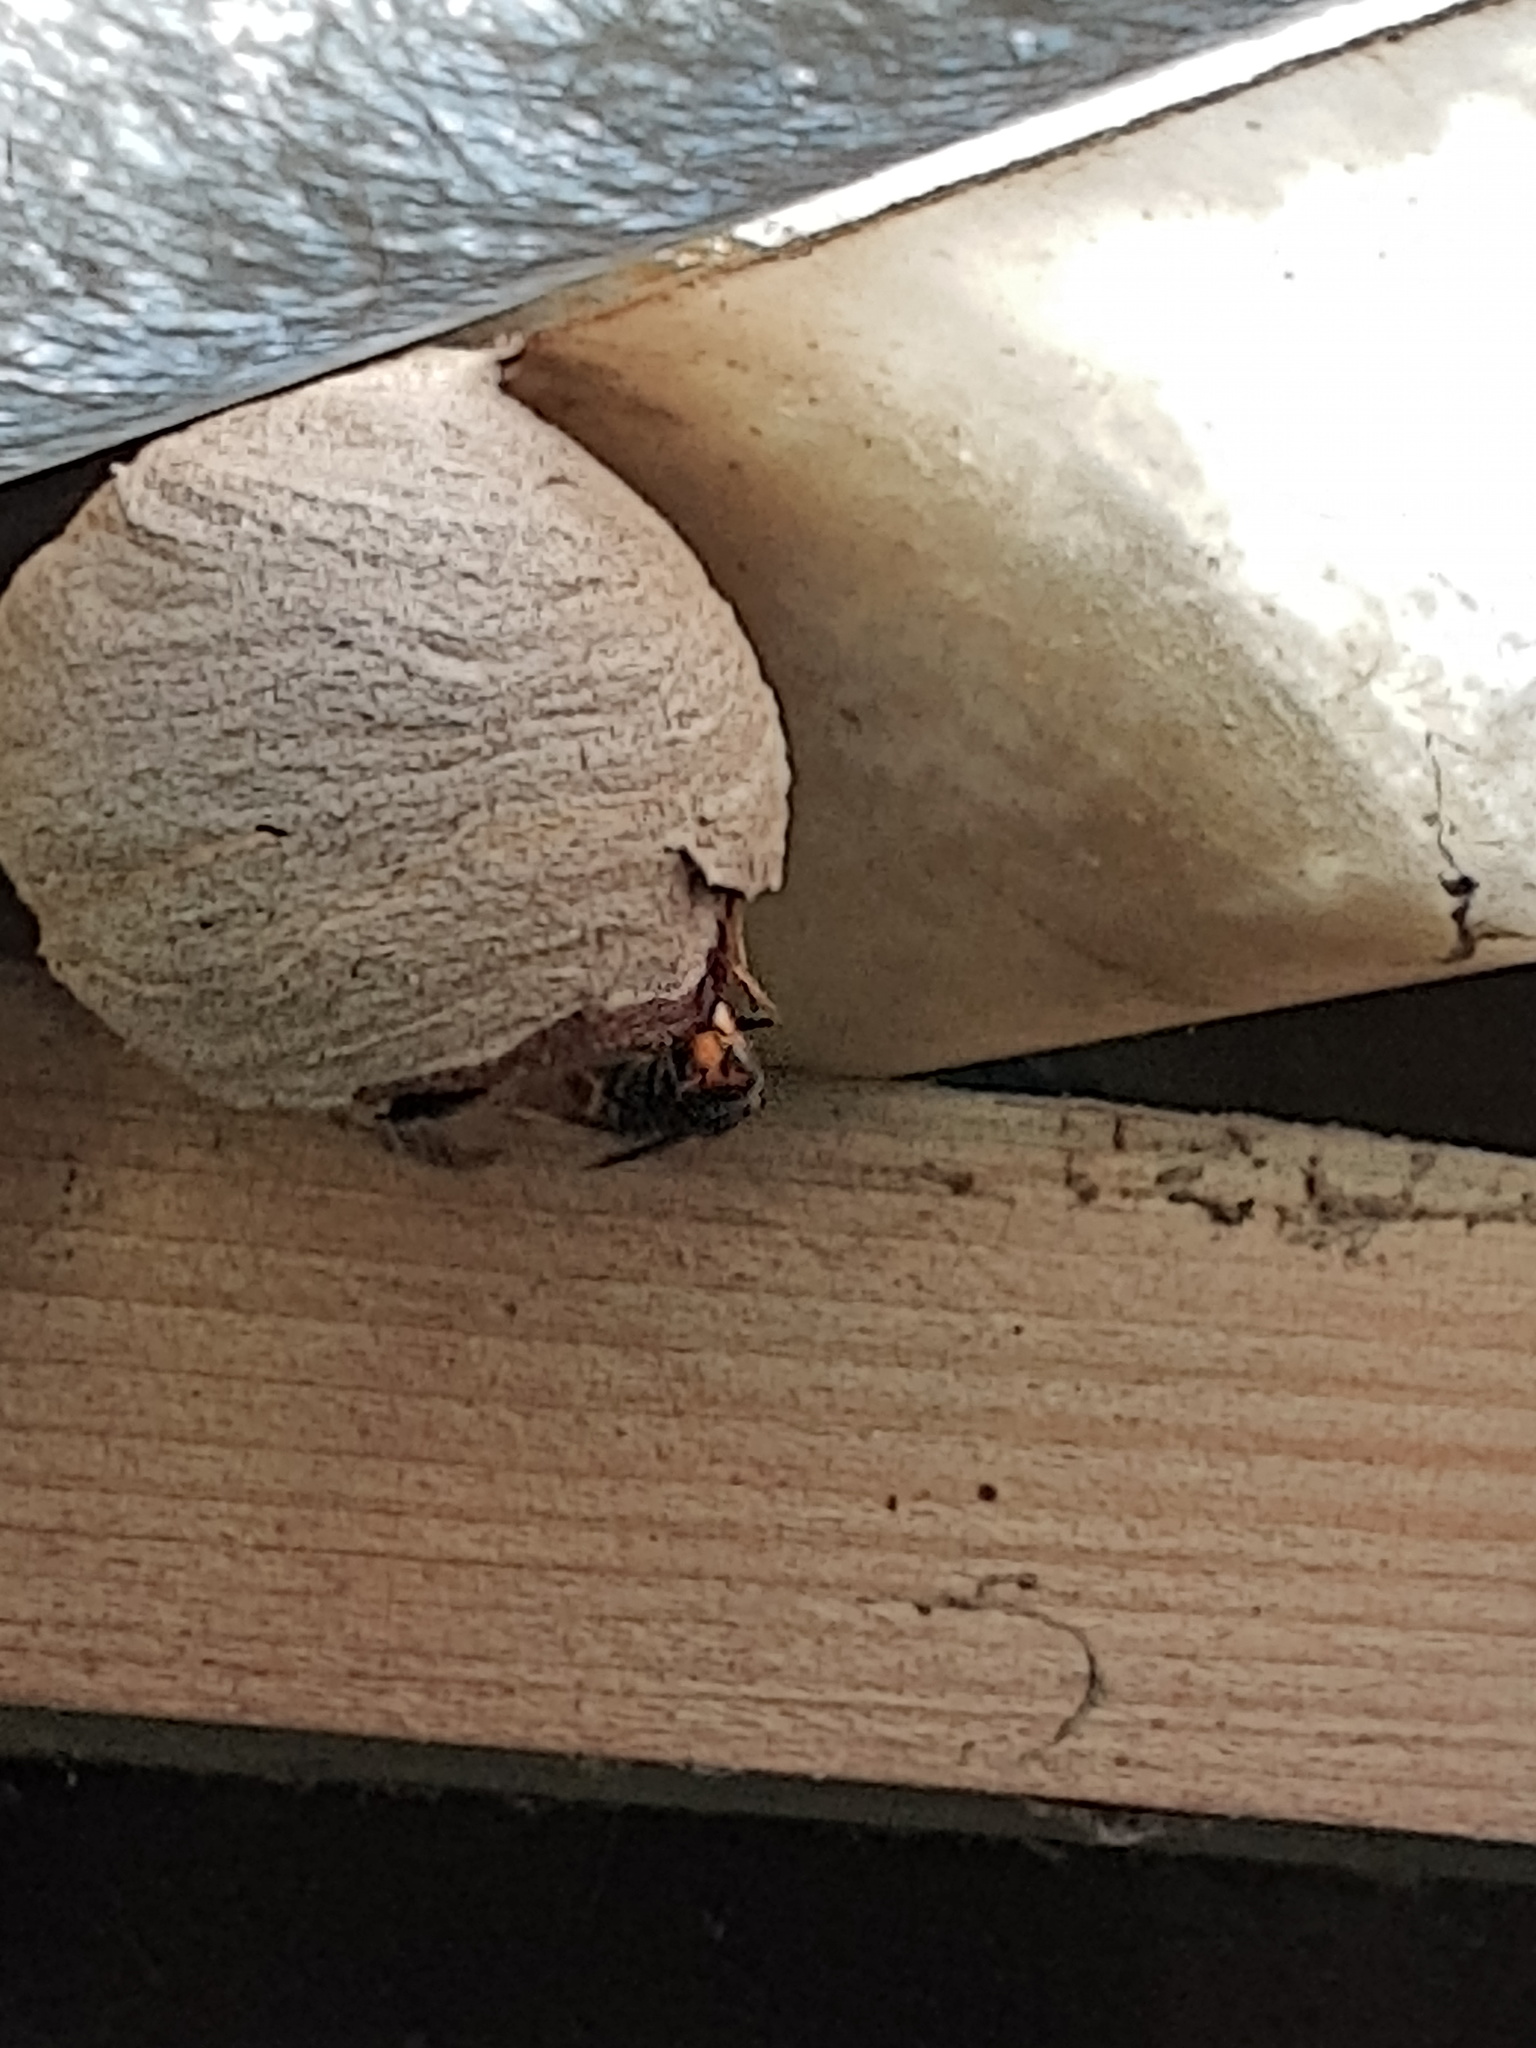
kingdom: Animalia
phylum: Arthropoda
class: Insecta
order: Hymenoptera
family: Vespidae
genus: Vespa
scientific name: Vespa velutina
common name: Asian hornet
